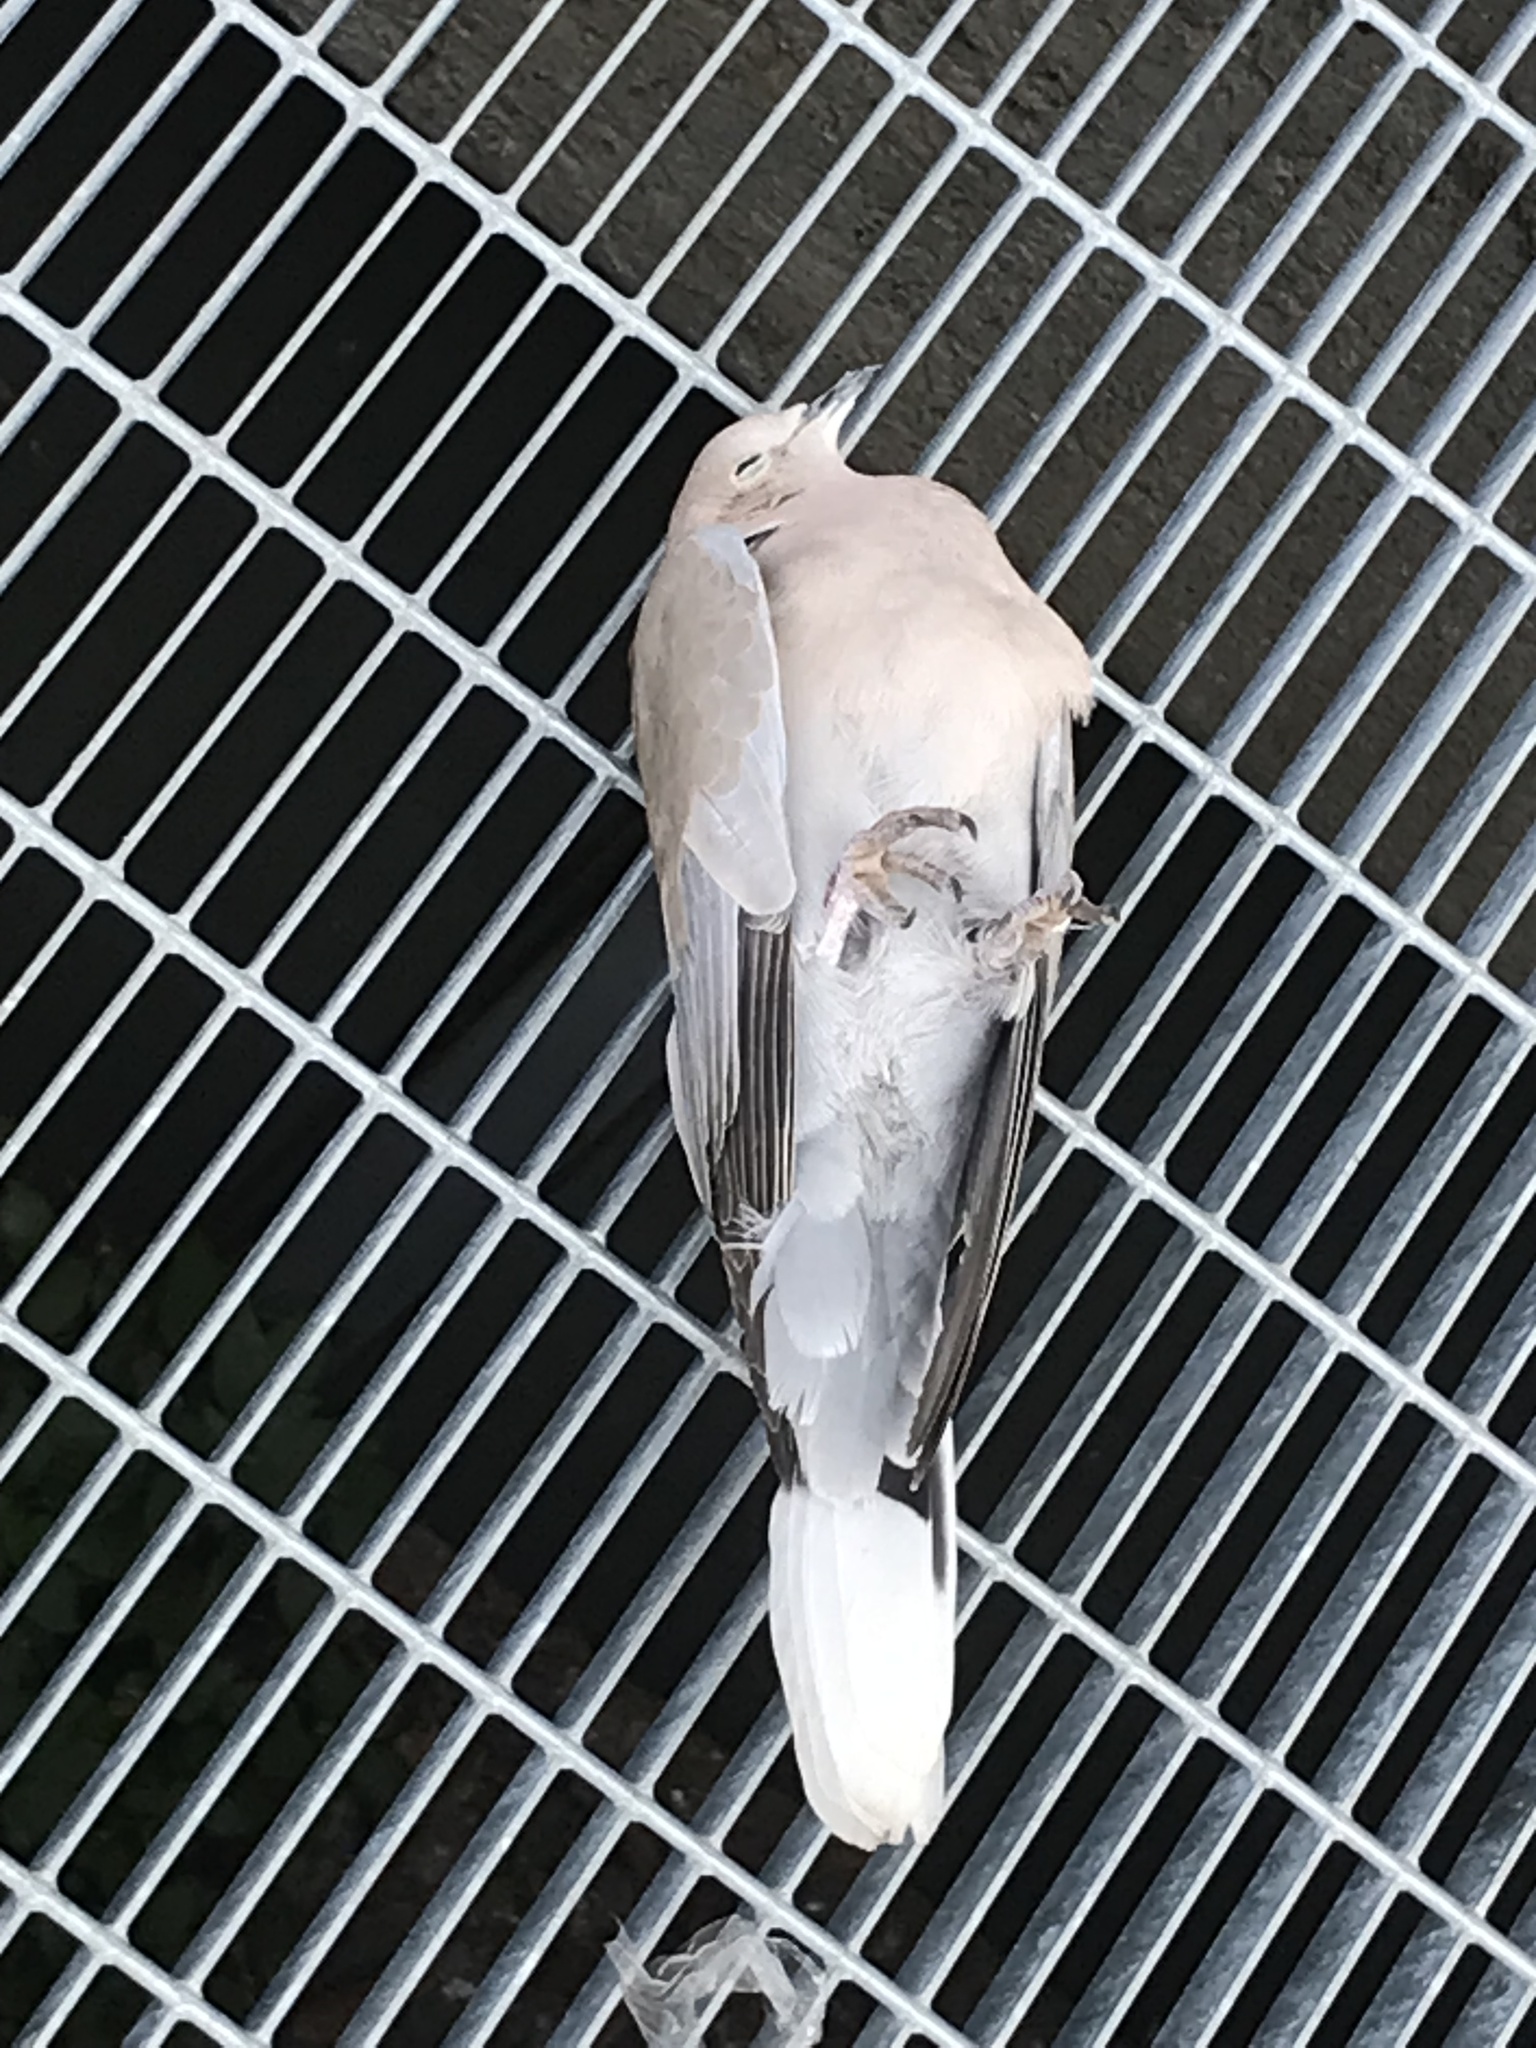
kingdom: Animalia
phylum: Chordata
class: Aves
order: Columbiformes
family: Columbidae
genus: Streptopelia
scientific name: Streptopelia decaocto
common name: Eurasian collared dove
